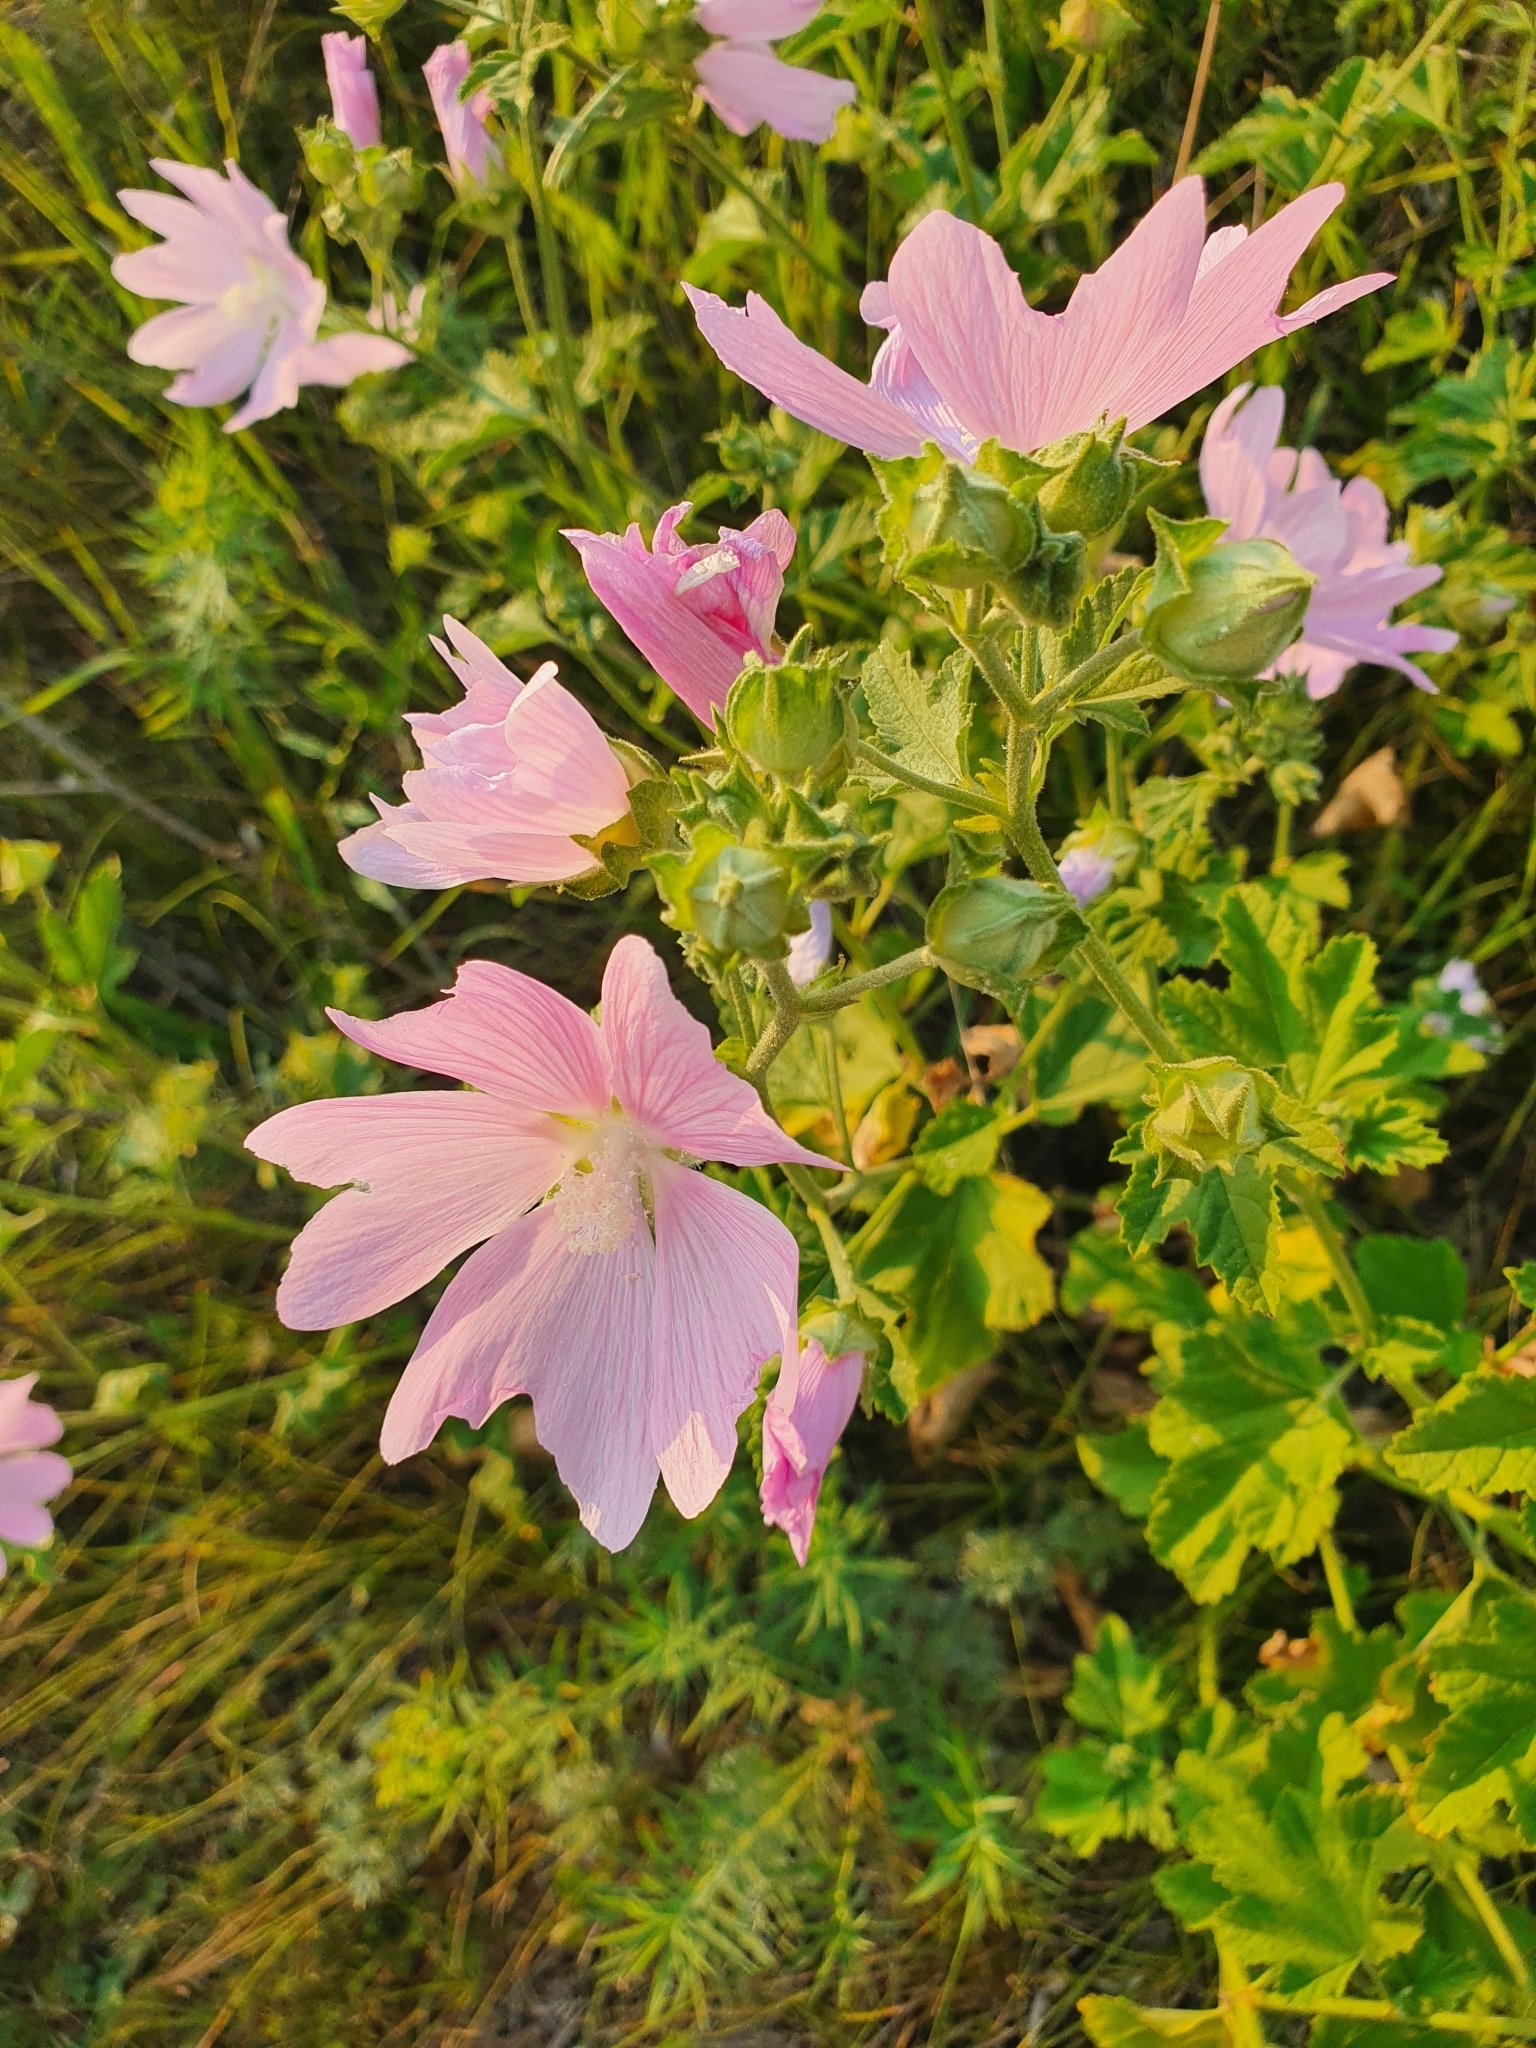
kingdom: Plantae
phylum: Tracheophyta
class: Magnoliopsida
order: Malvales
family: Malvaceae
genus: Malva
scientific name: Malva thuringiaca
